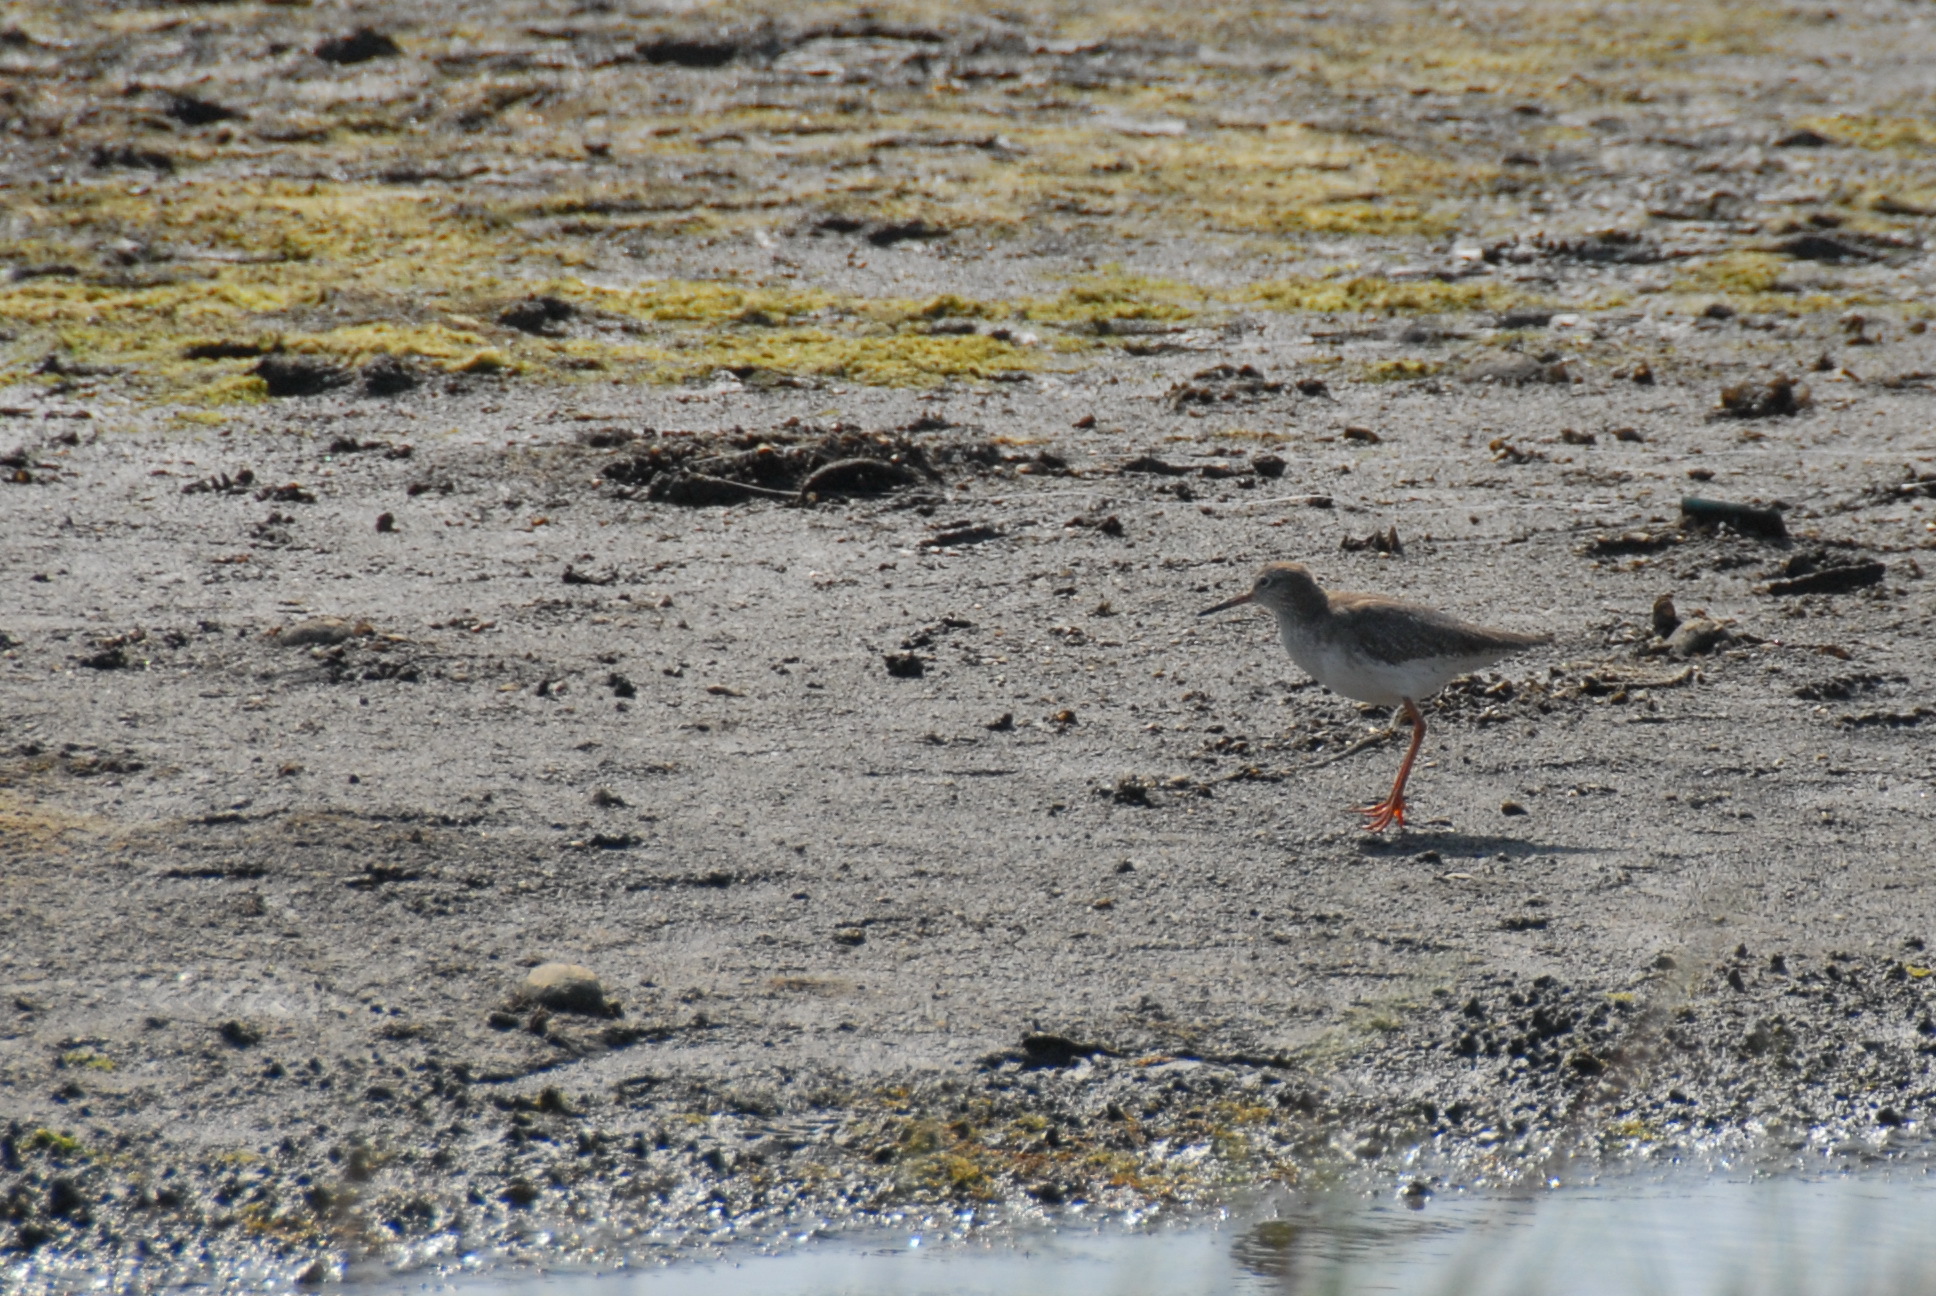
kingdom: Animalia
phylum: Chordata
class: Aves
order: Charadriiformes
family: Scolopacidae
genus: Tringa
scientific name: Tringa totanus
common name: Common redshank
